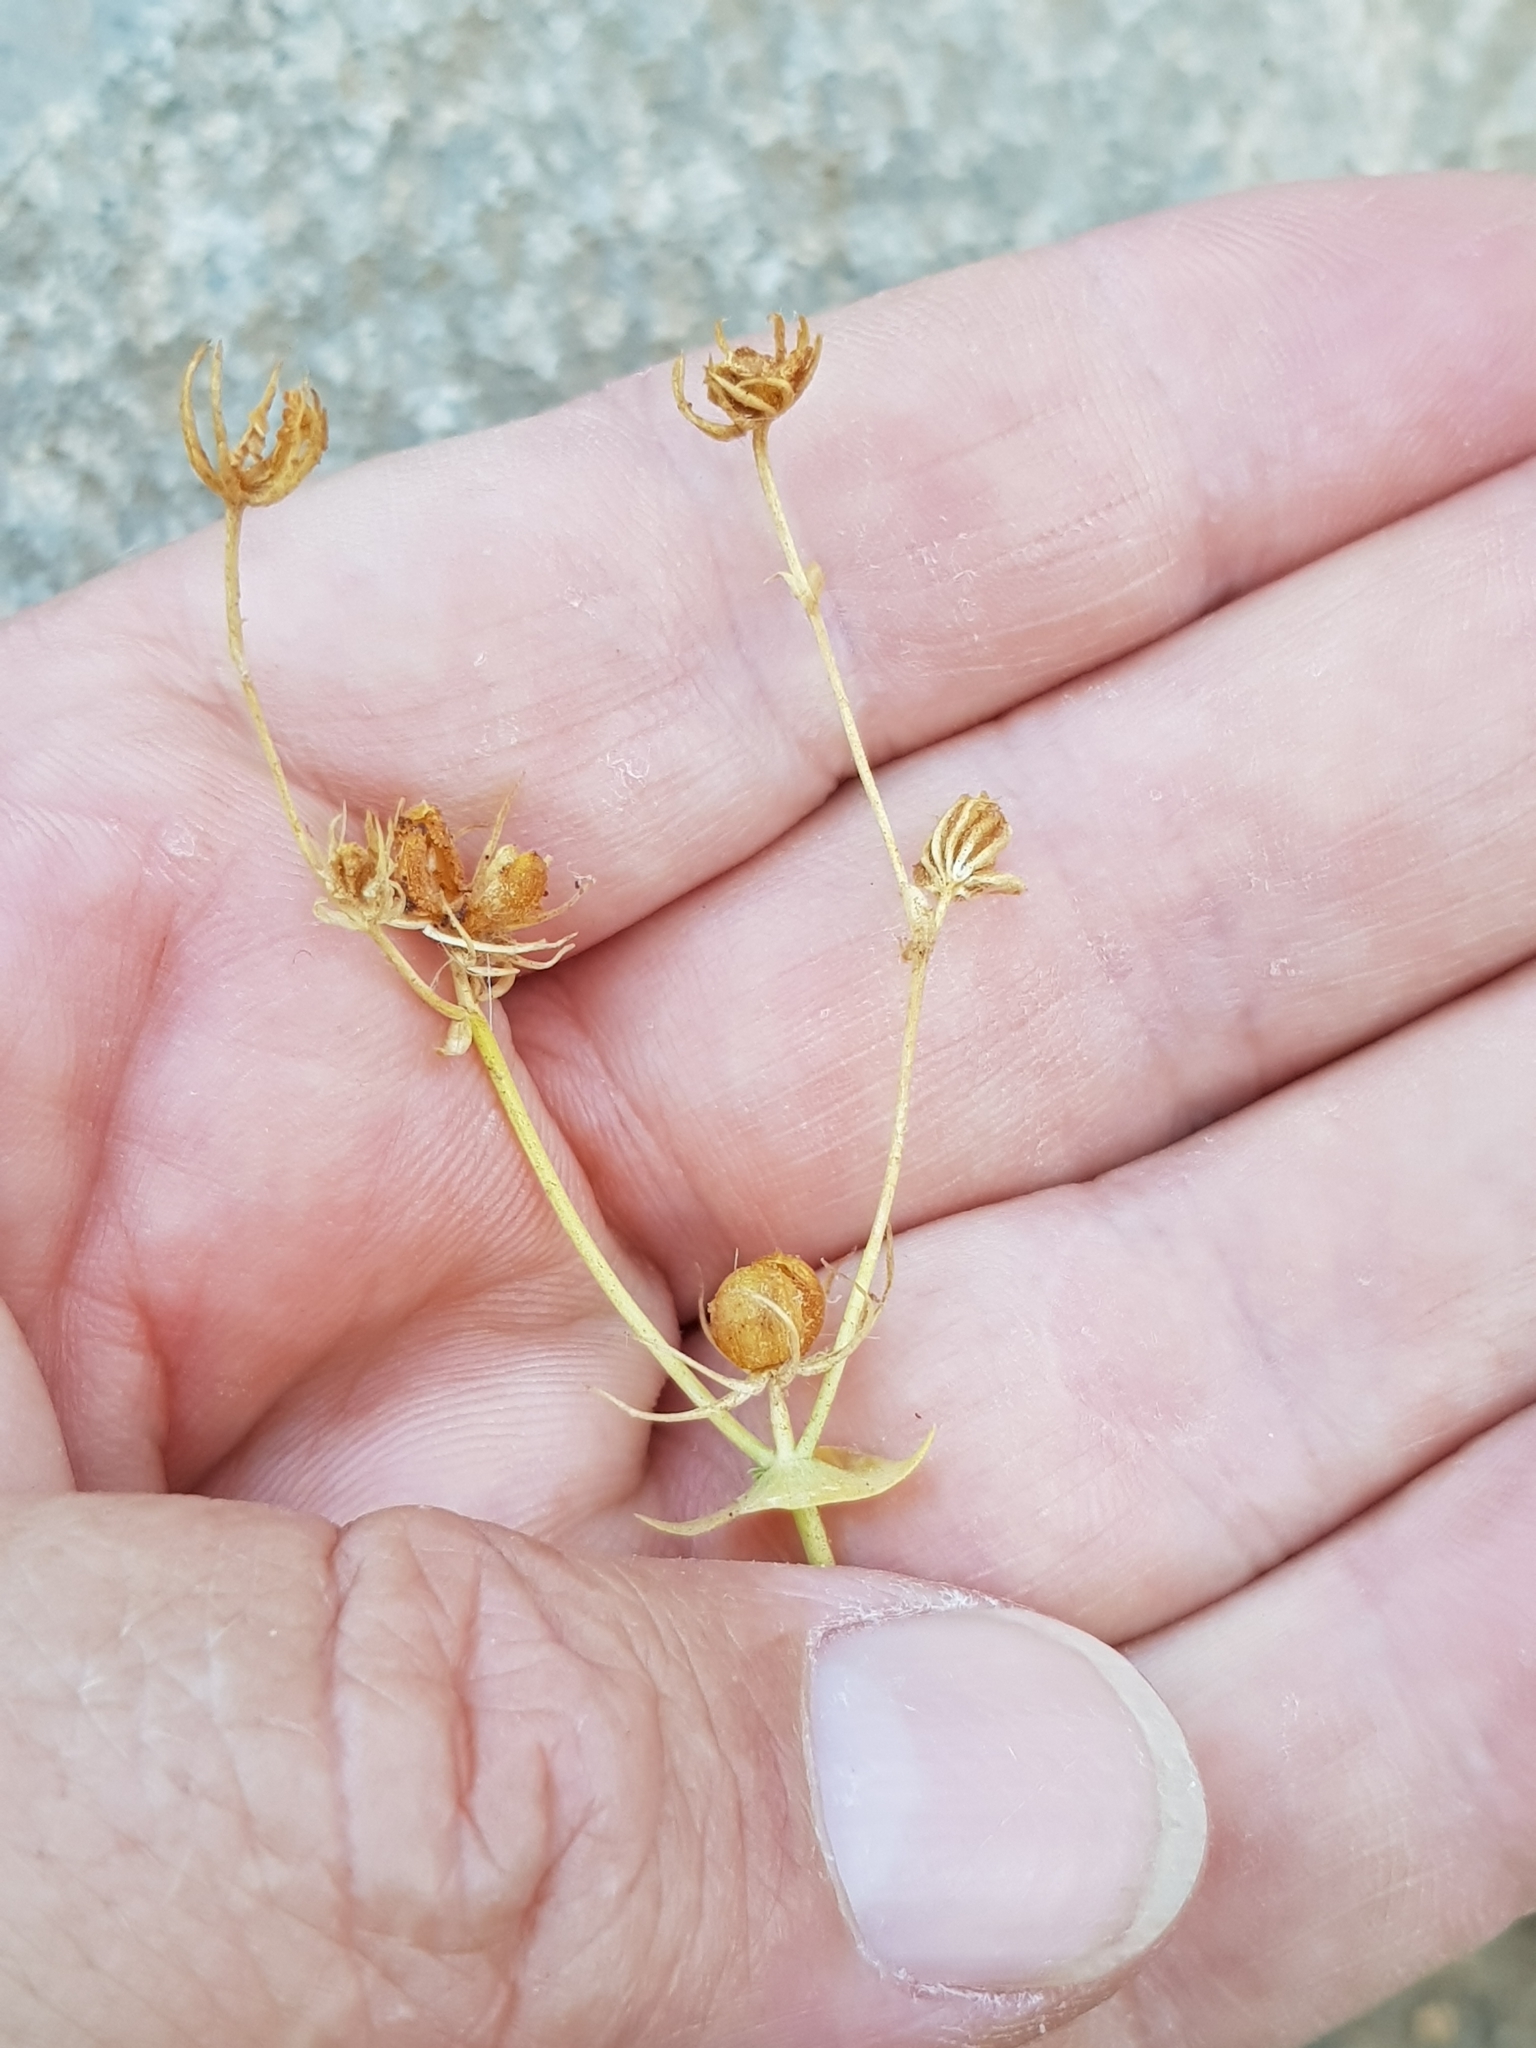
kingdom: Plantae
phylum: Tracheophyta
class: Magnoliopsida
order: Gentianales
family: Gentianaceae
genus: Blackstonia
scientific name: Blackstonia grandiflora
